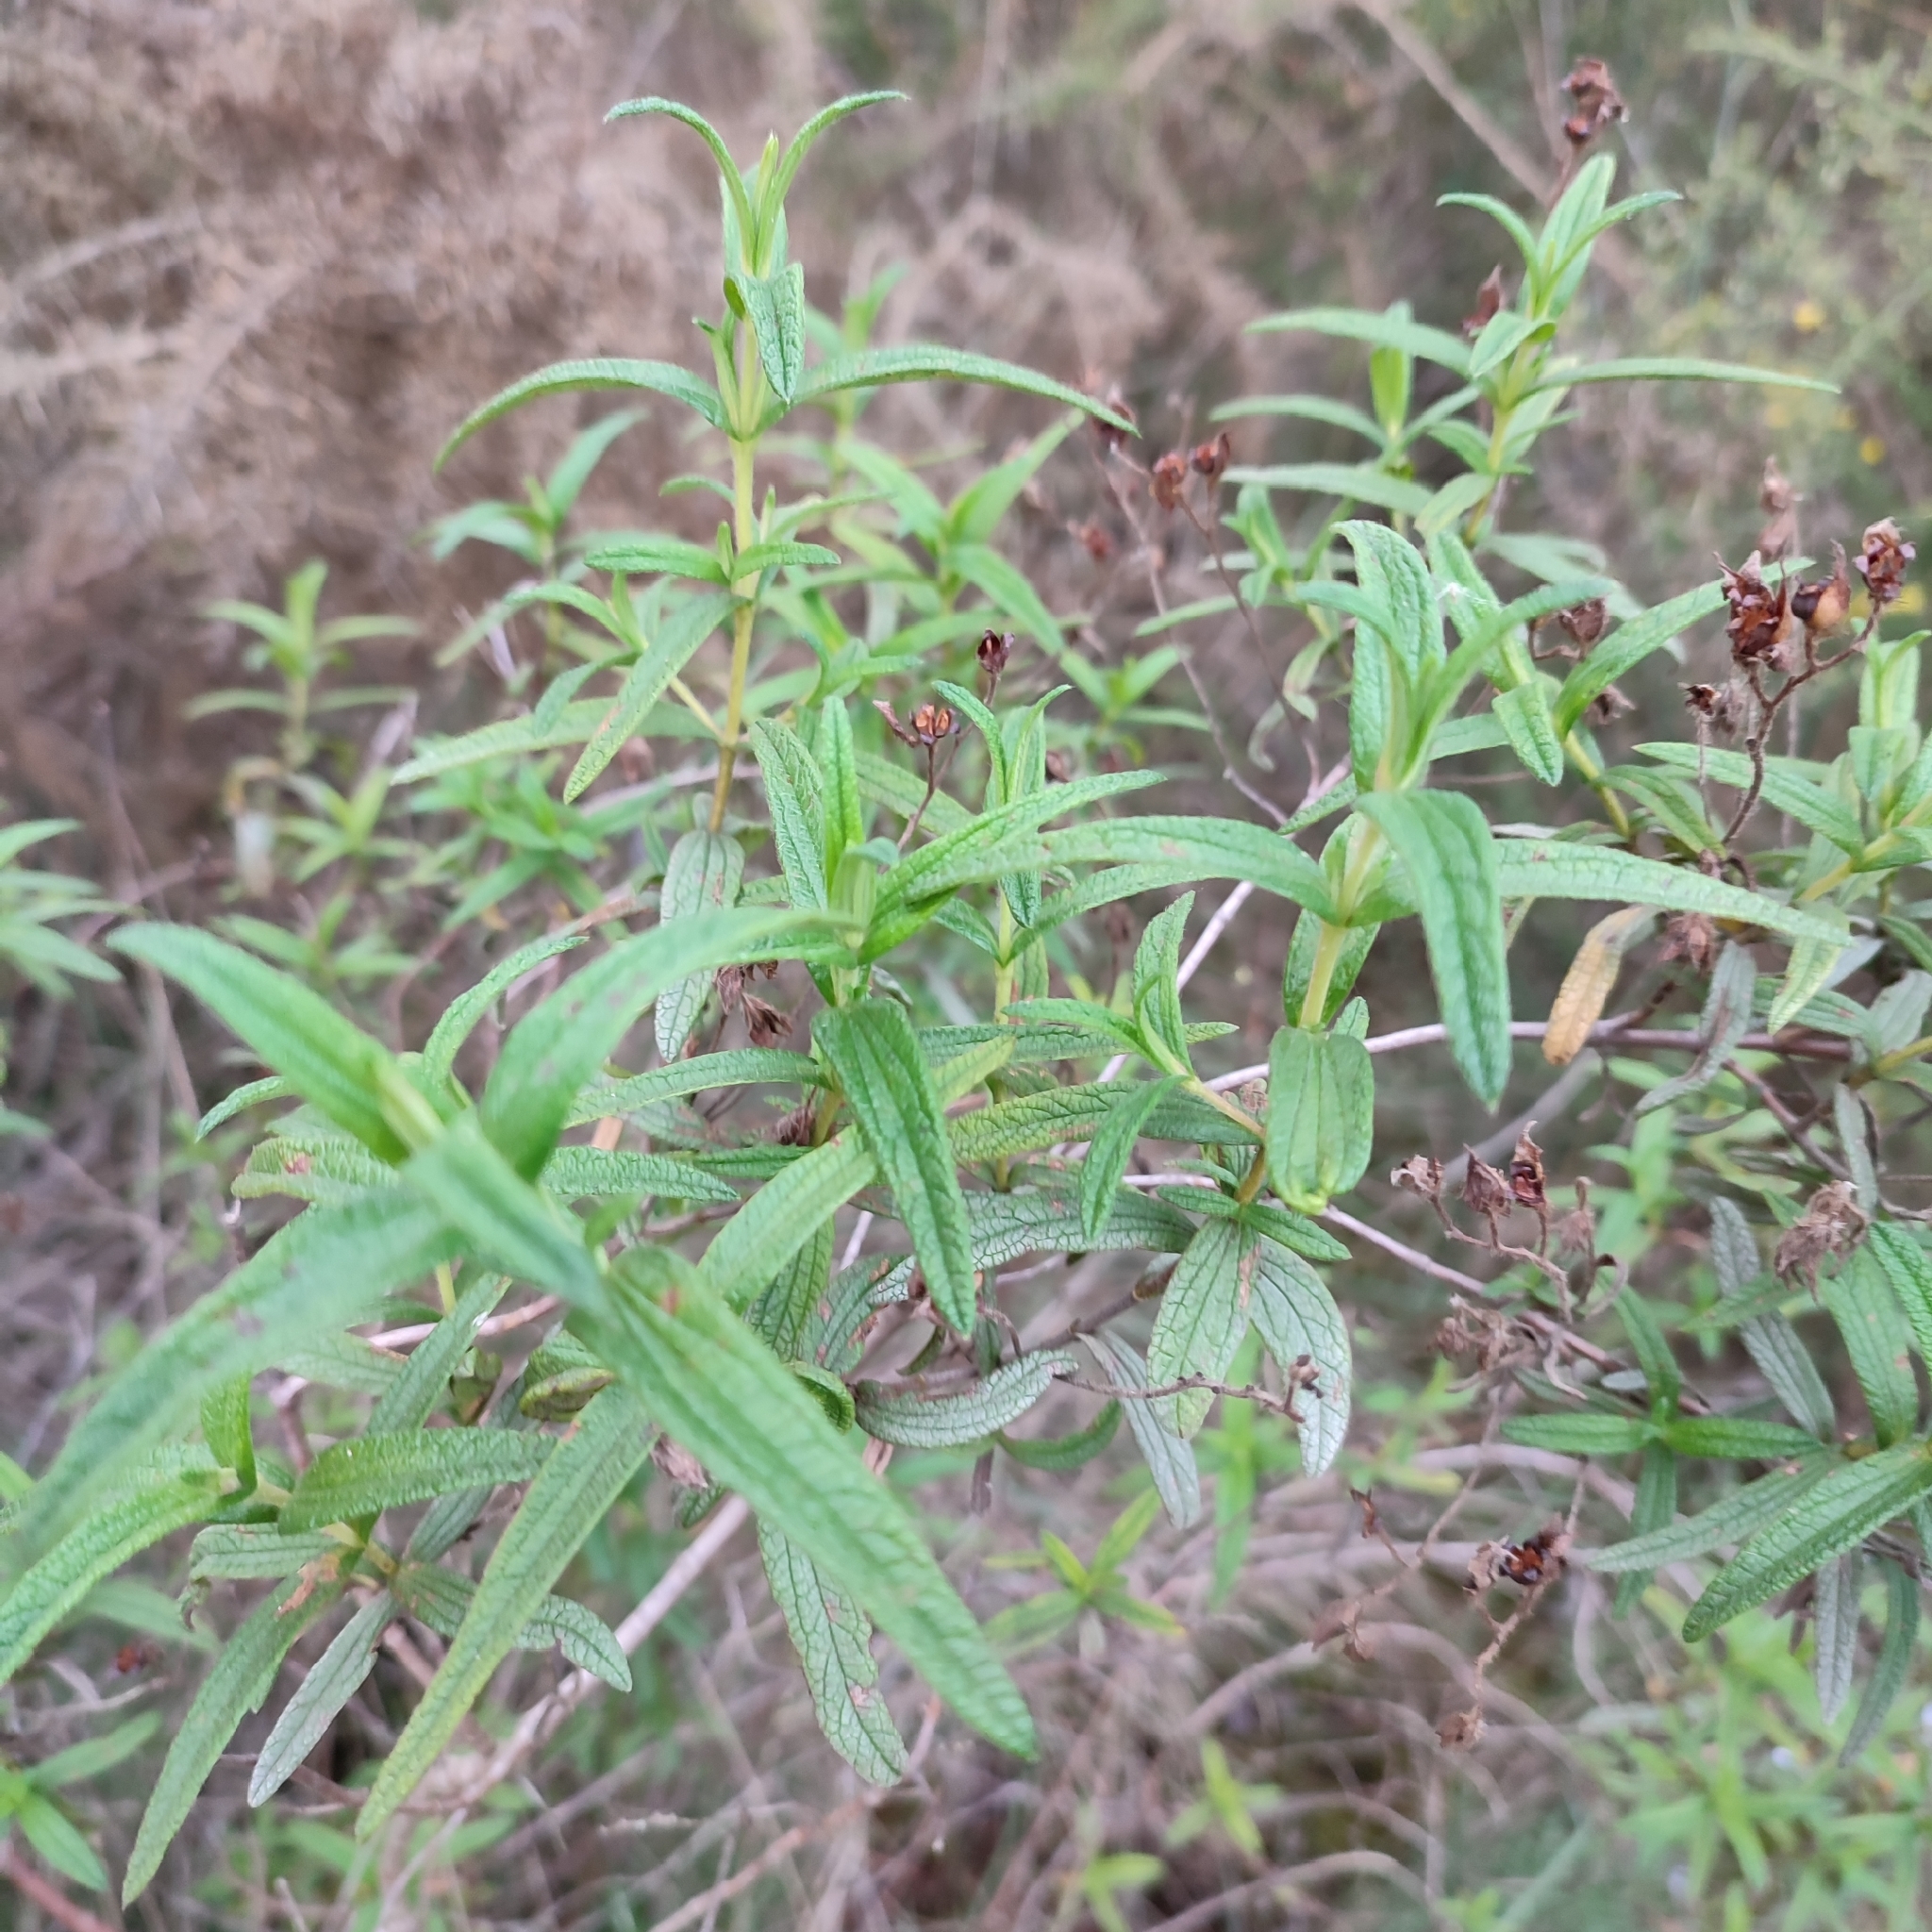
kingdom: Plantae
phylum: Tracheophyta
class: Magnoliopsida
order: Malvales
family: Cistaceae
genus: Cistus
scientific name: Cistus monspeliensis
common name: Montpelier cistus
